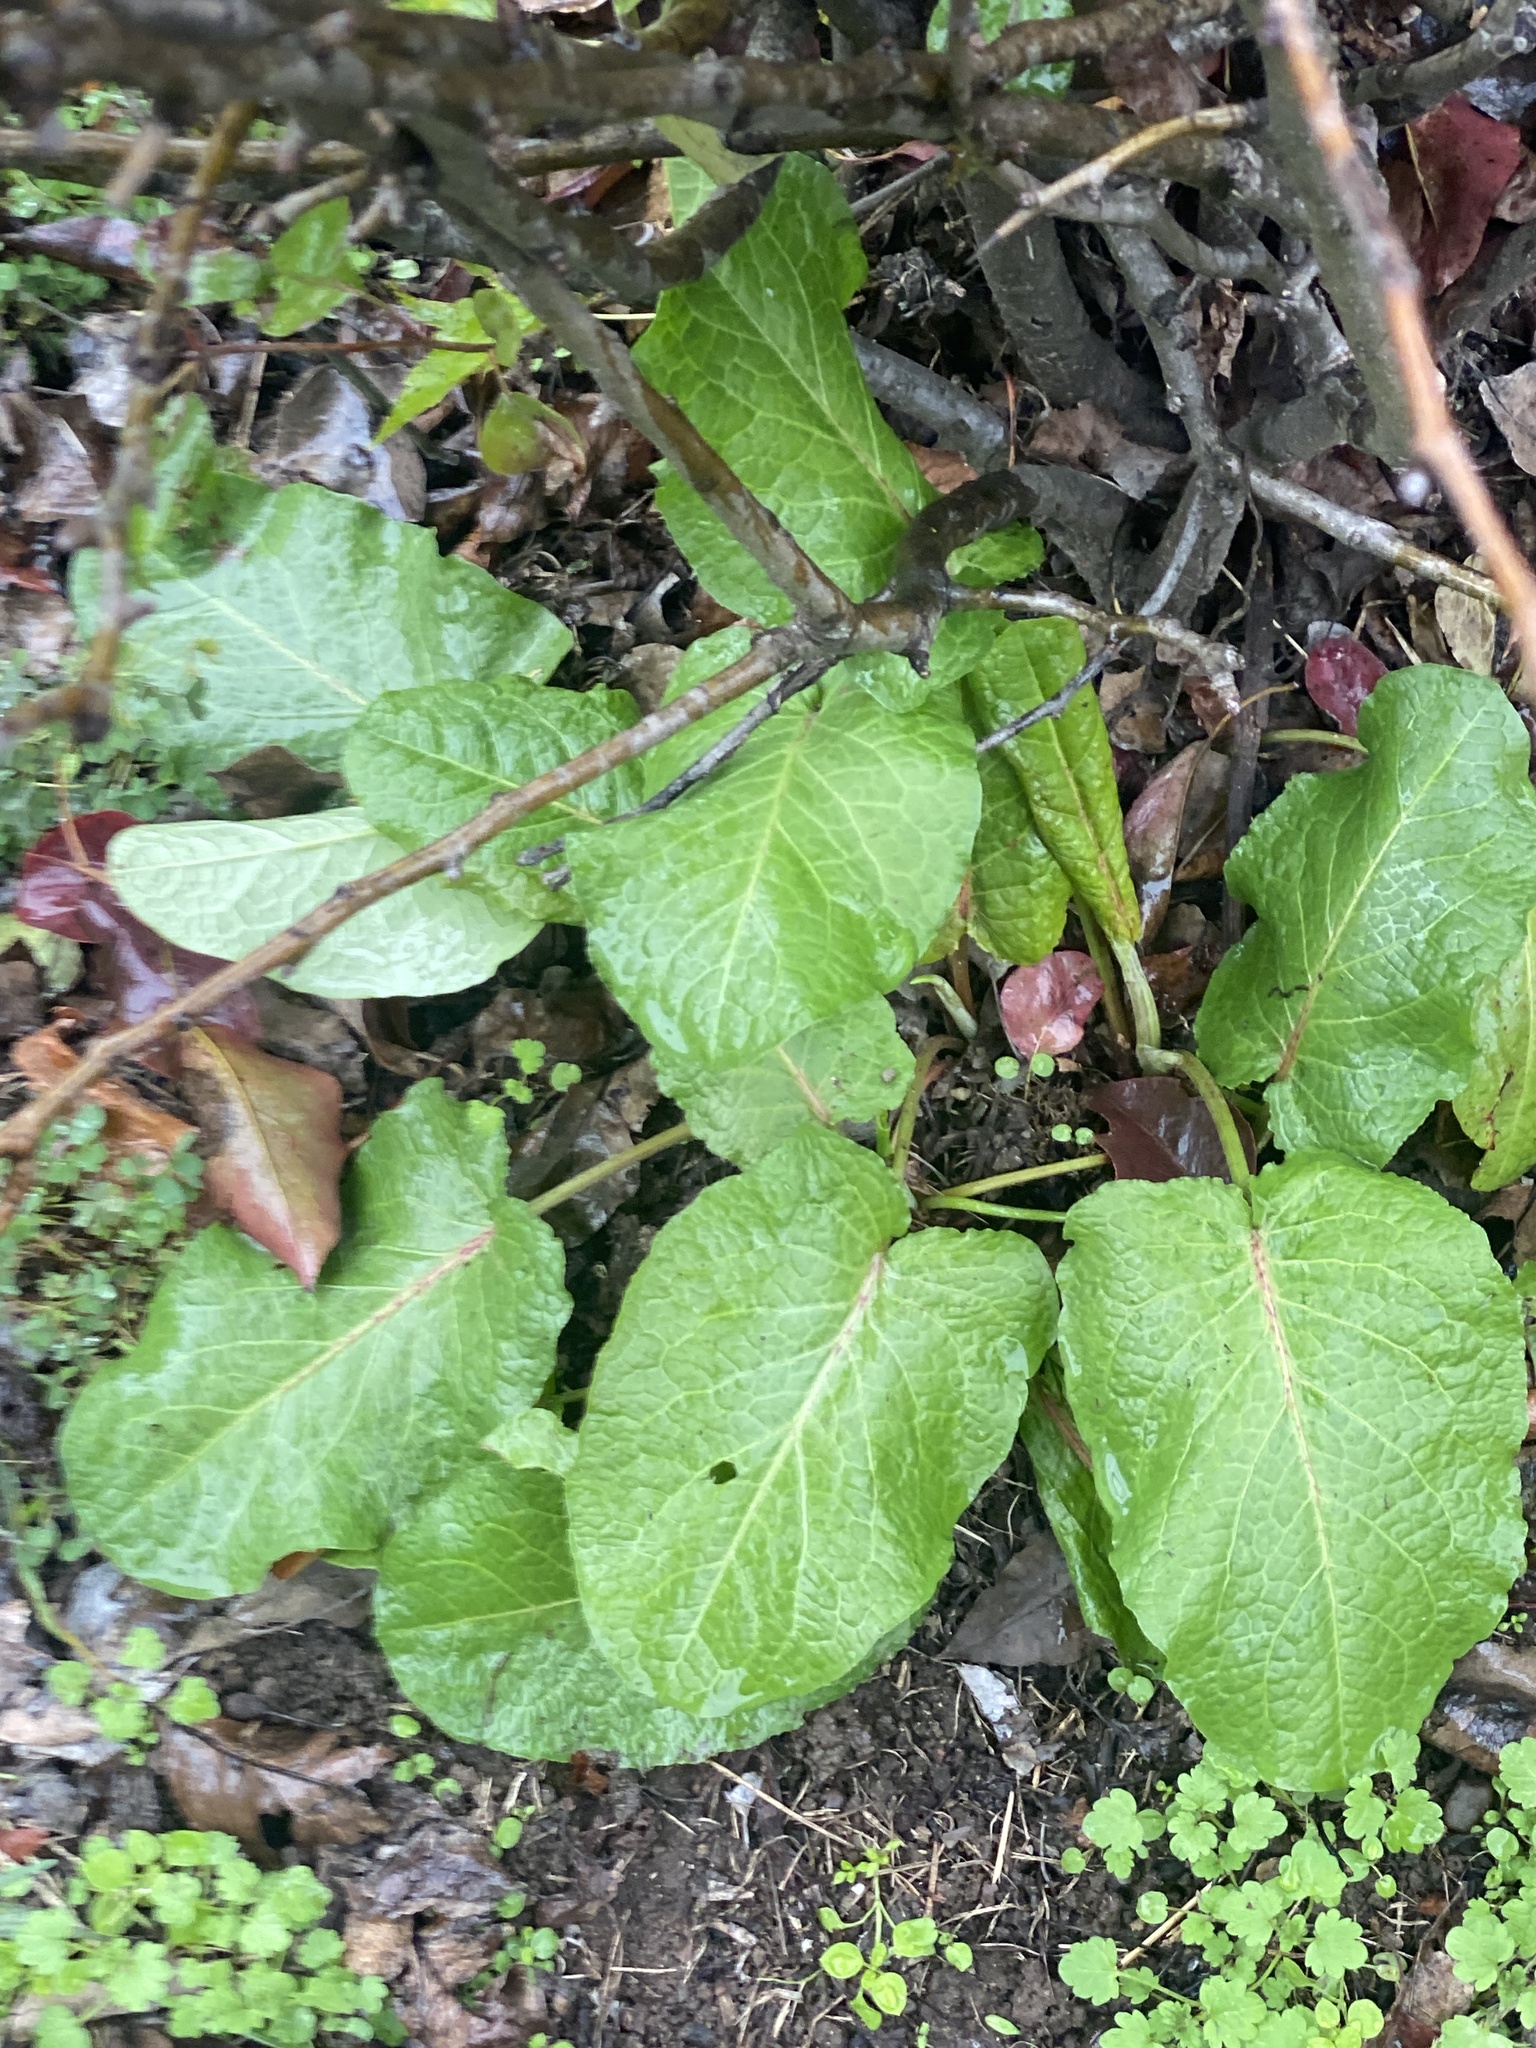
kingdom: Plantae
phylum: Tracheophyta
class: Magnoliopsida
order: Caryophyllales
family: Polygonaceae
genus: Rumex
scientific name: Rumex obtusifolius
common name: Bitter dock
